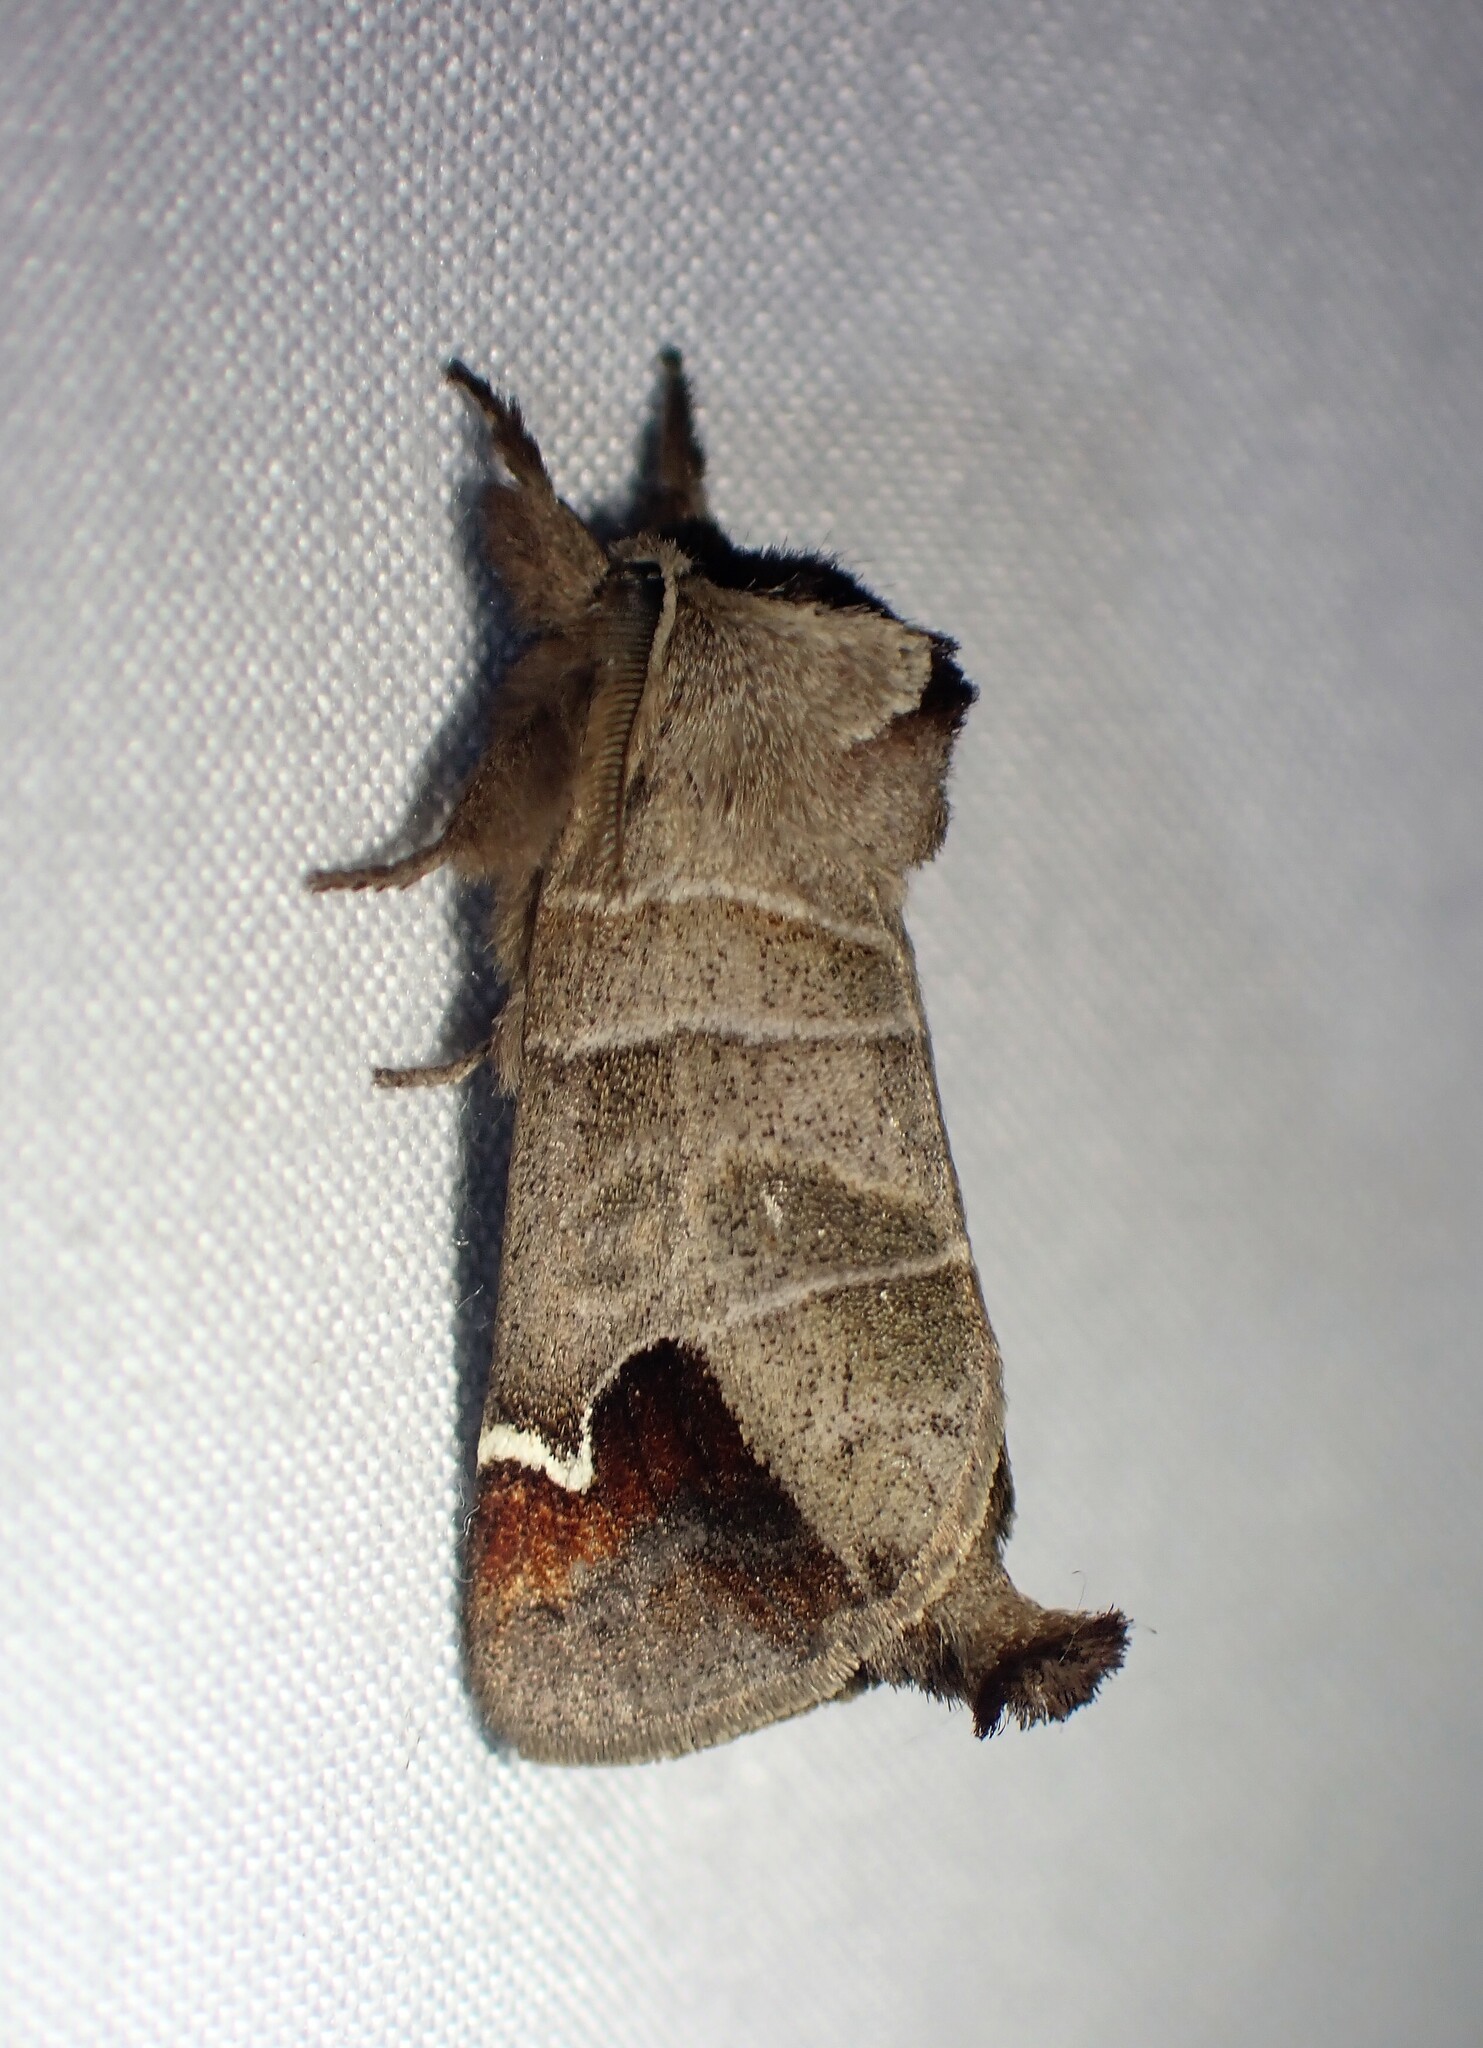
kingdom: Animalia
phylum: Arthropoda
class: Insecta
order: Lepidoptera
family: Notodontidae
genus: Clostera
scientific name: Clostera albosigma
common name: Sigmoid prominent
